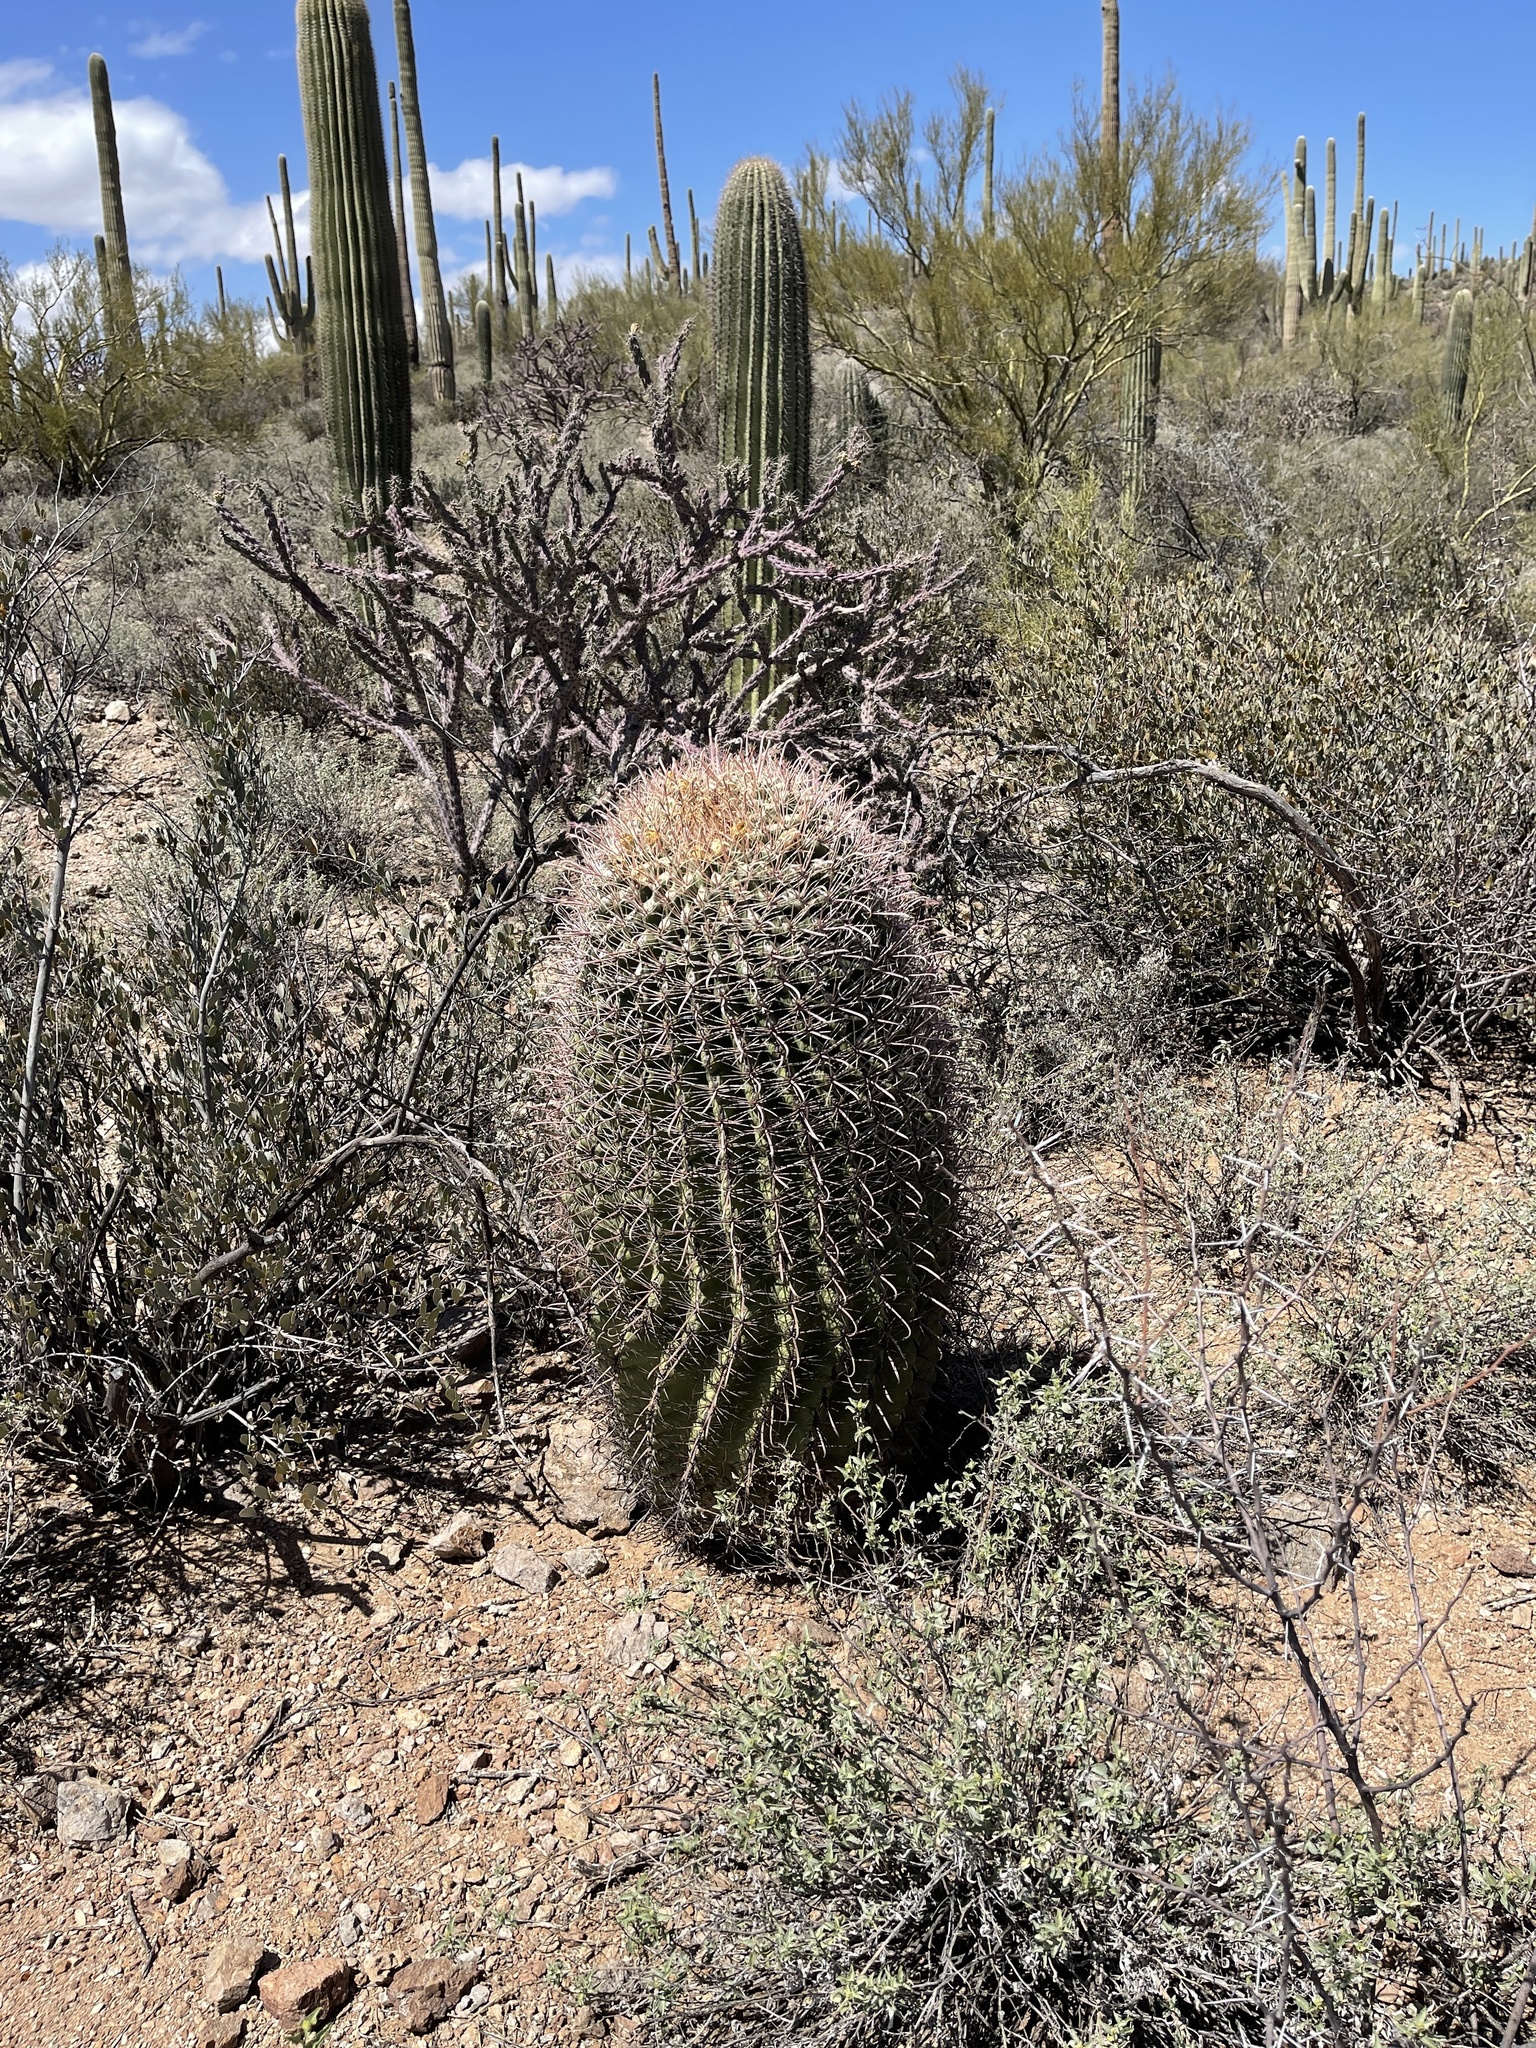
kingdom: Plantae
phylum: Tracheophyta
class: Magnoliopsida
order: Caryophyllales
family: Cactaceae
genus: Ferocactus
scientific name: Ferocactus wislizeni
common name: Candy barrel cactus
